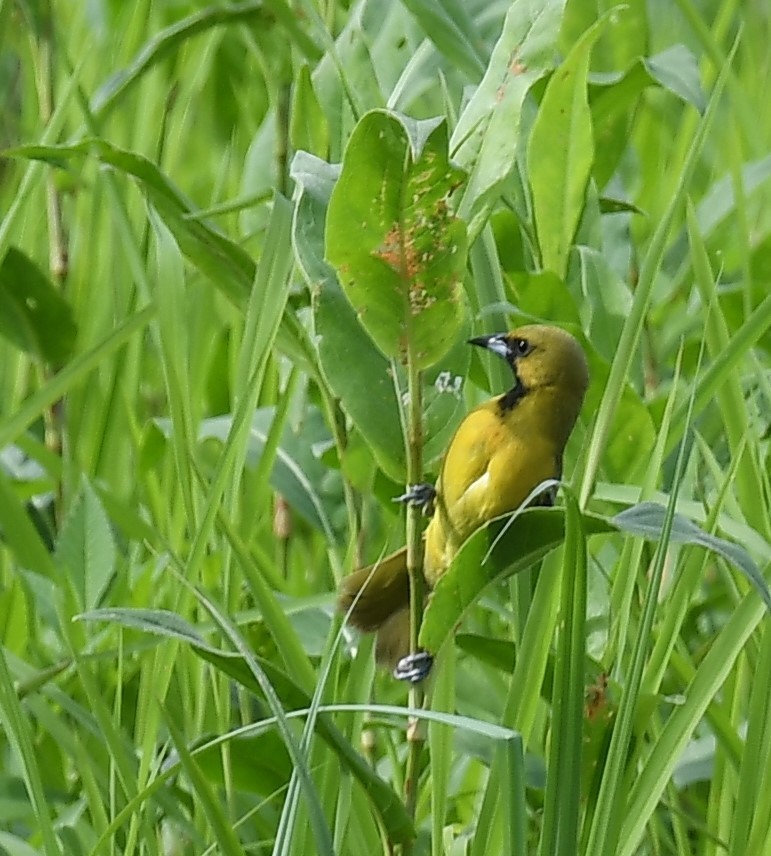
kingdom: Animalia
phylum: Chordata
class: Aves
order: Passeriformes
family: Icteridae
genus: Icterus
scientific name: Icterus spurius
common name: Orchard oriole
